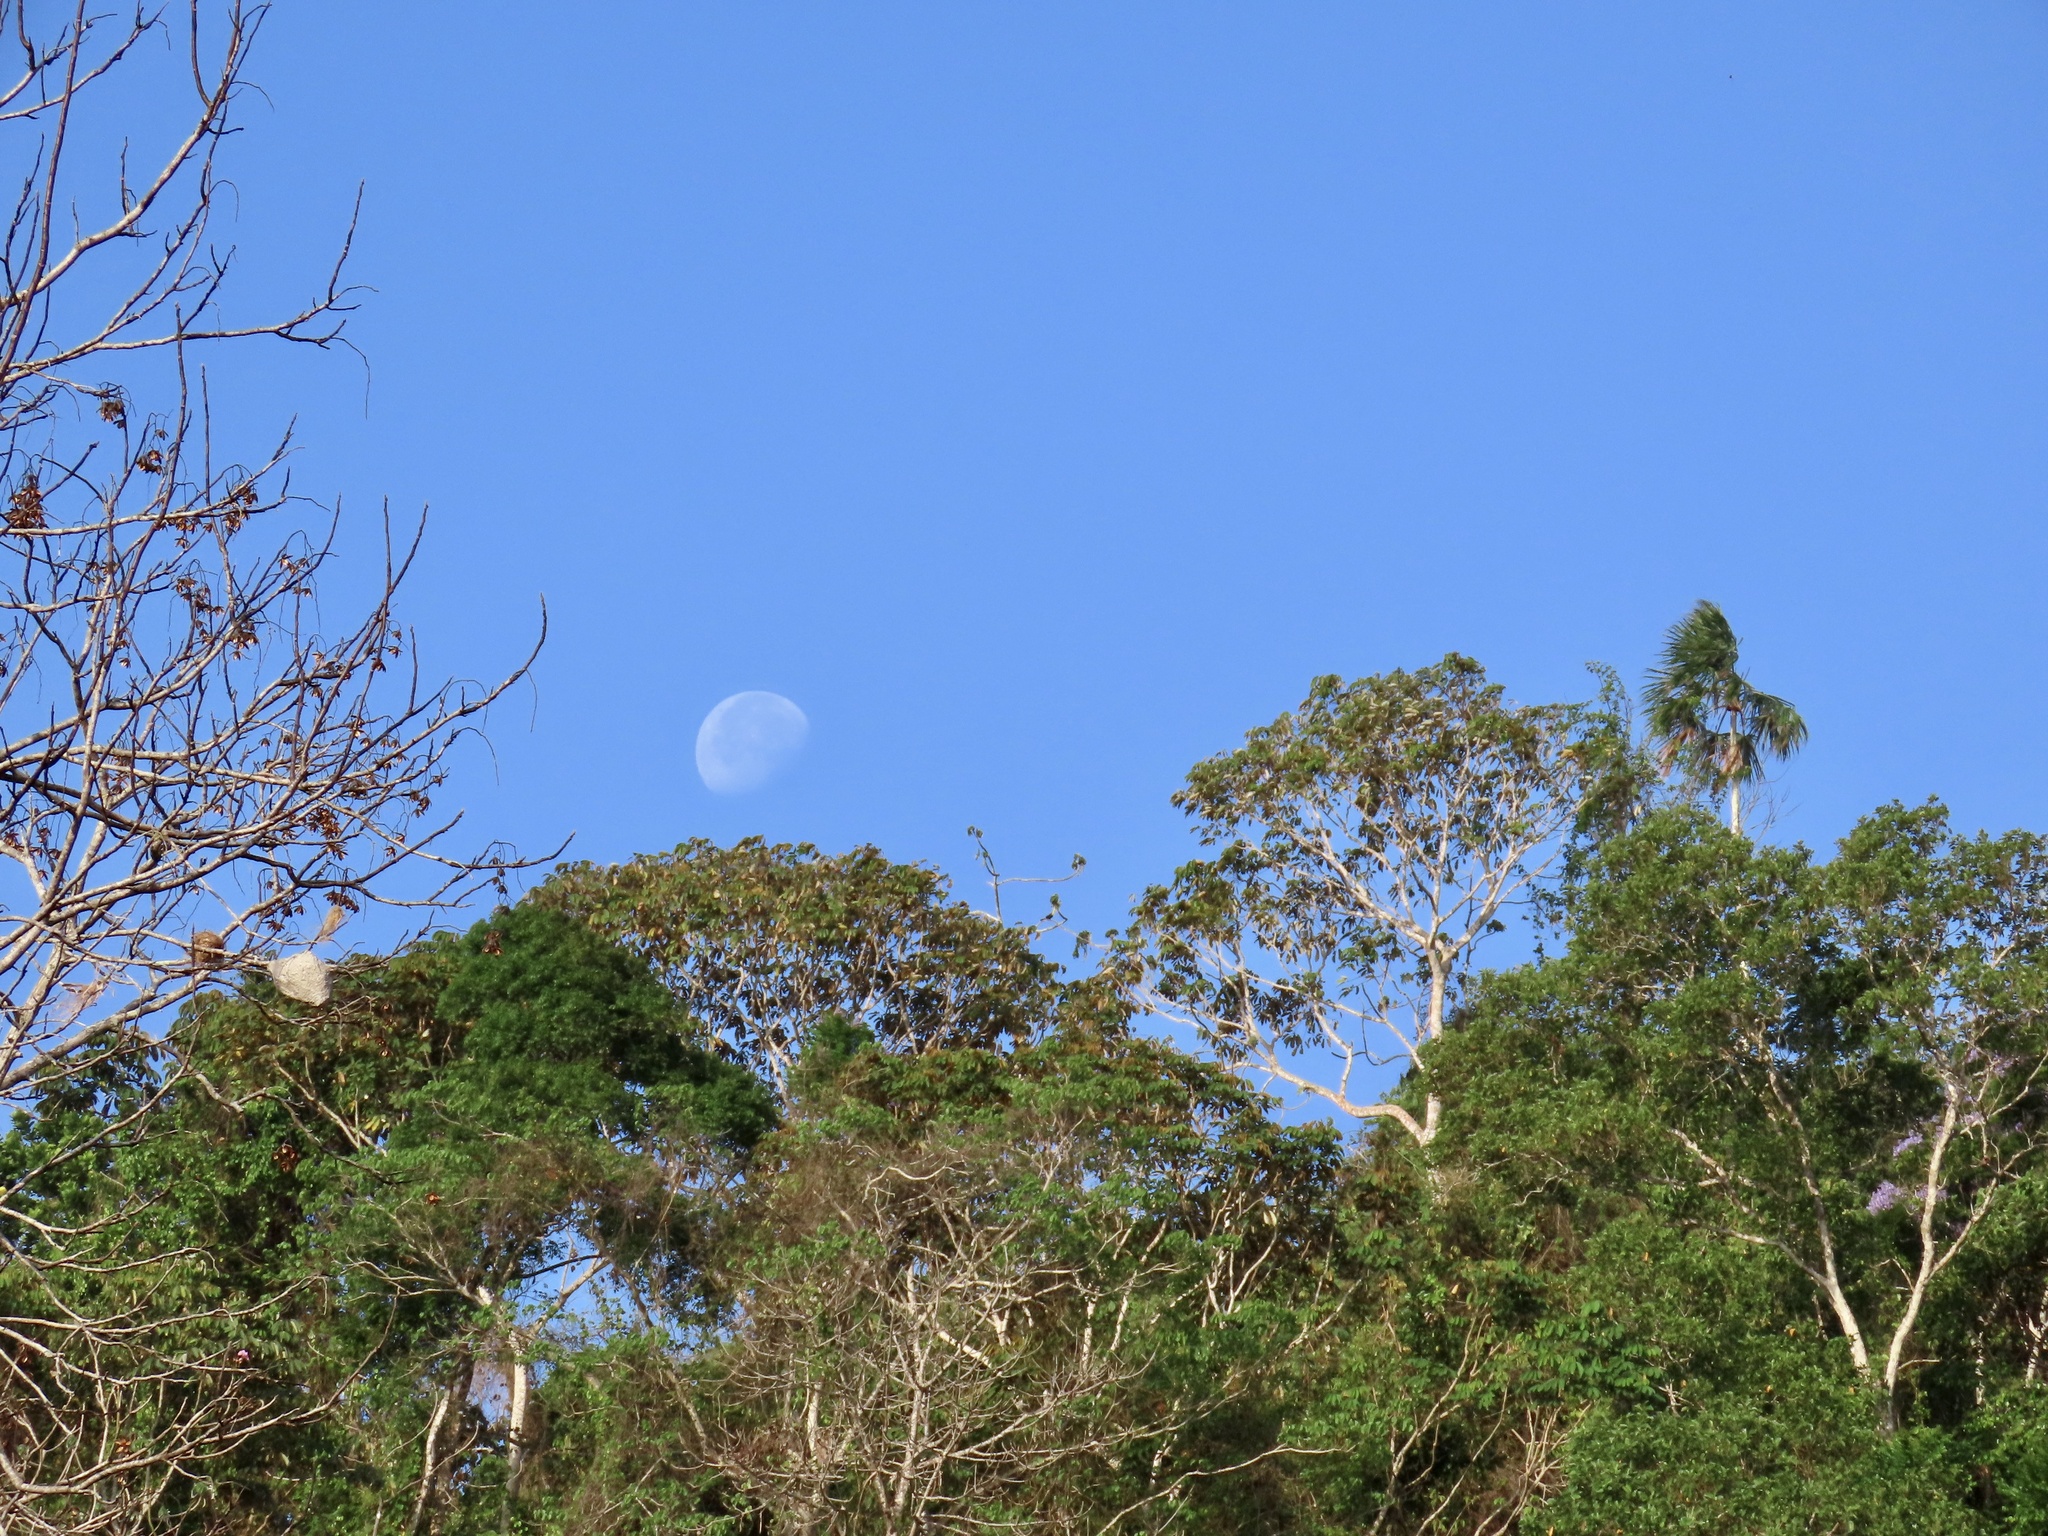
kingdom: Animalia
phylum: Chordata
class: Aves
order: Passeriformes
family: Parulidae
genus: Setophaga
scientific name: Setophaga castanea
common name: Bay-breasted warbler
